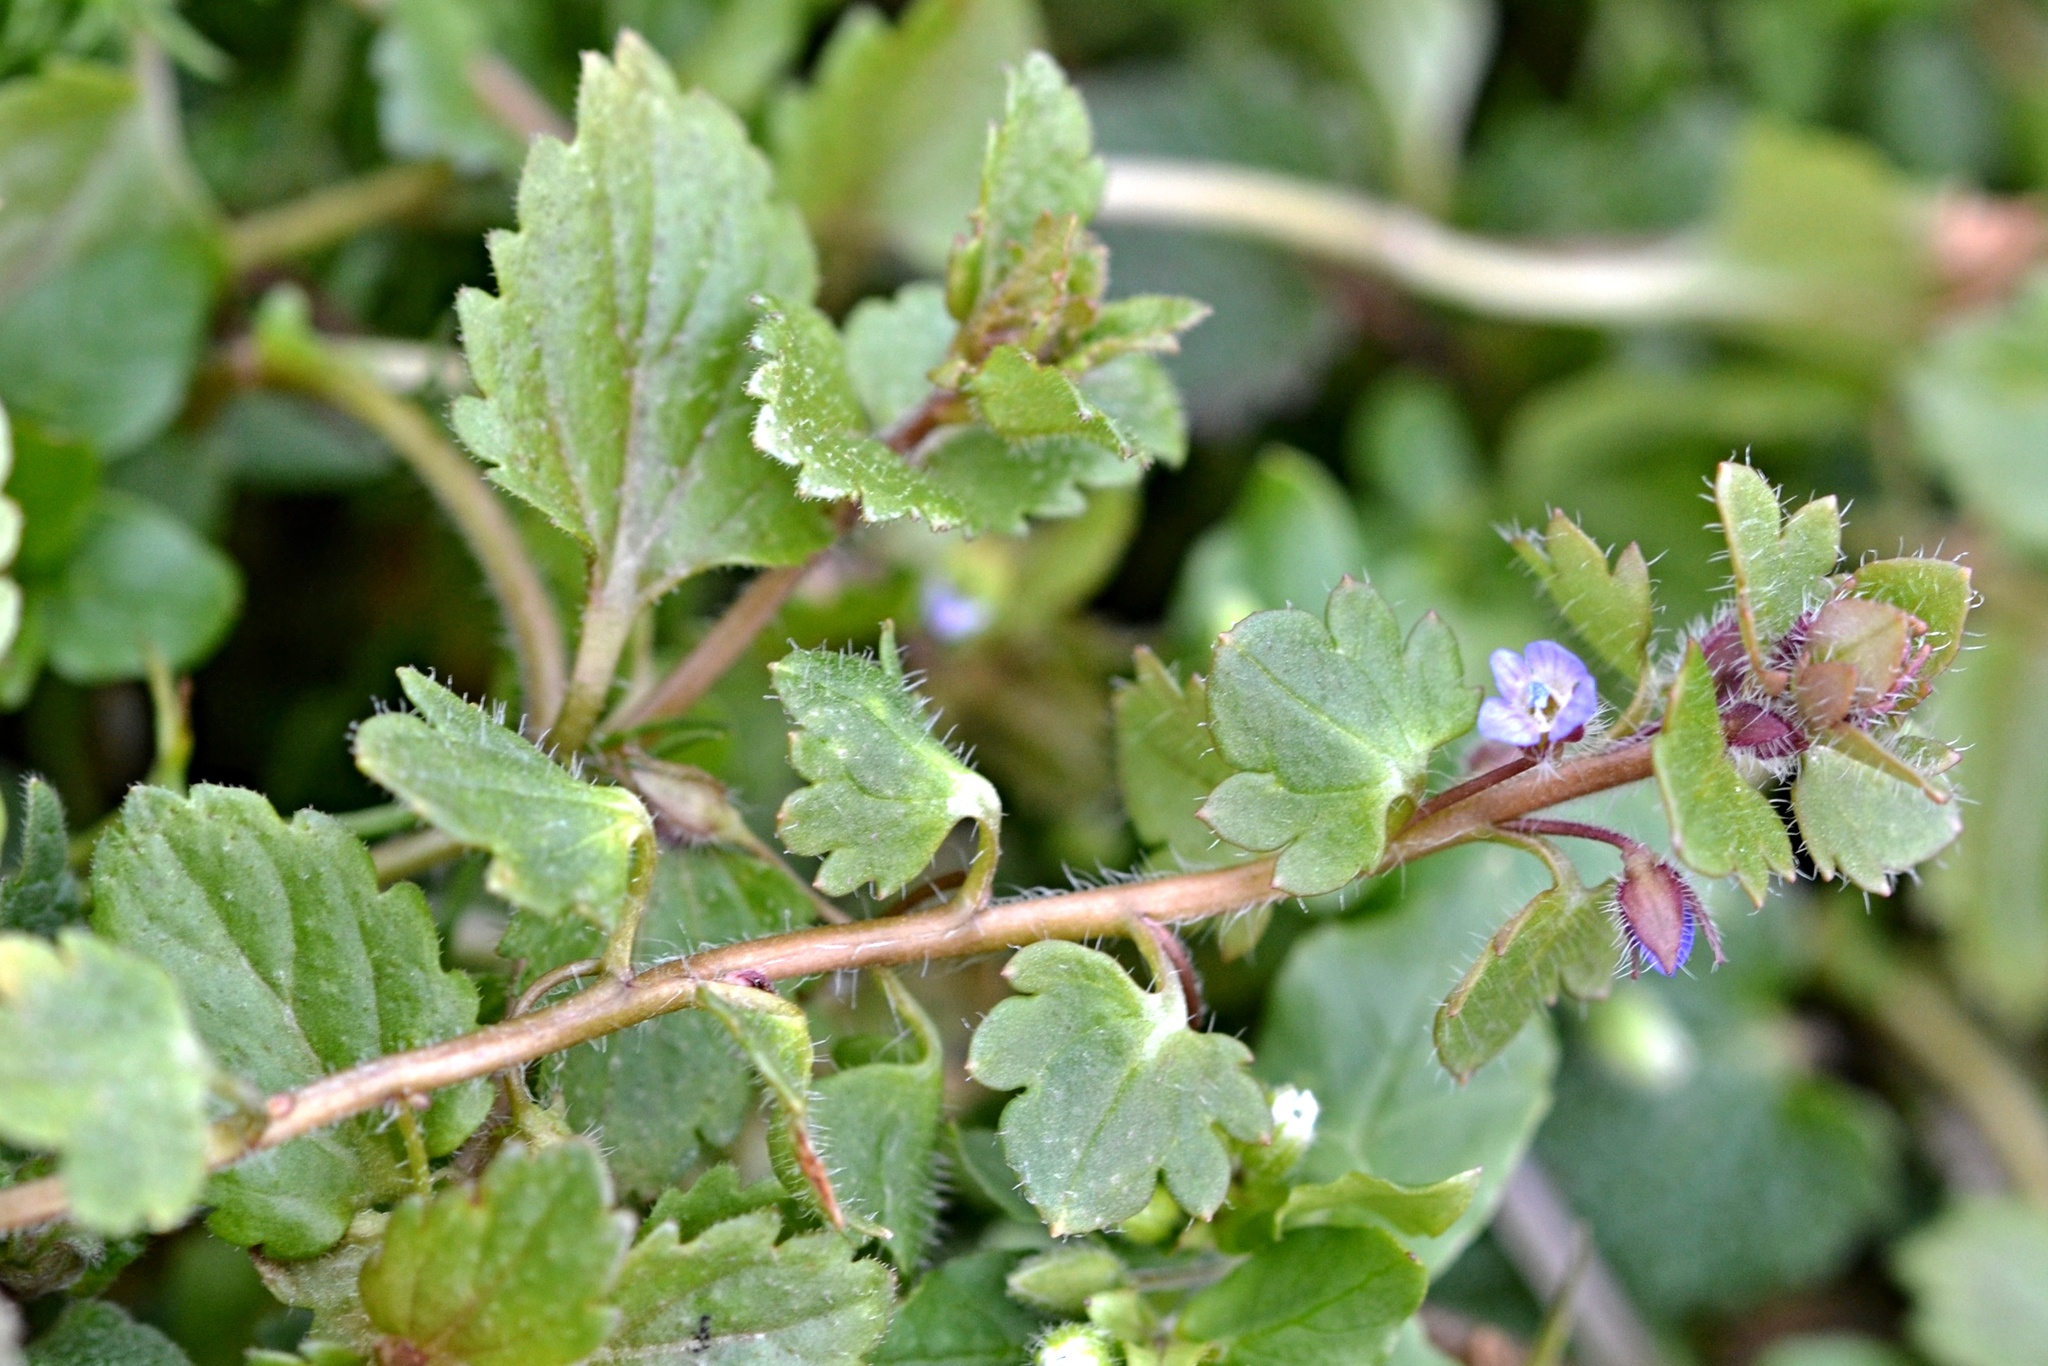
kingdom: Plantae
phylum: Tracheophyta
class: Magnoliopsida
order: Lamiales
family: Plantaginaceae
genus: Veronica
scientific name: Veronica hederifolia
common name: Ivy-leaved speedwell
